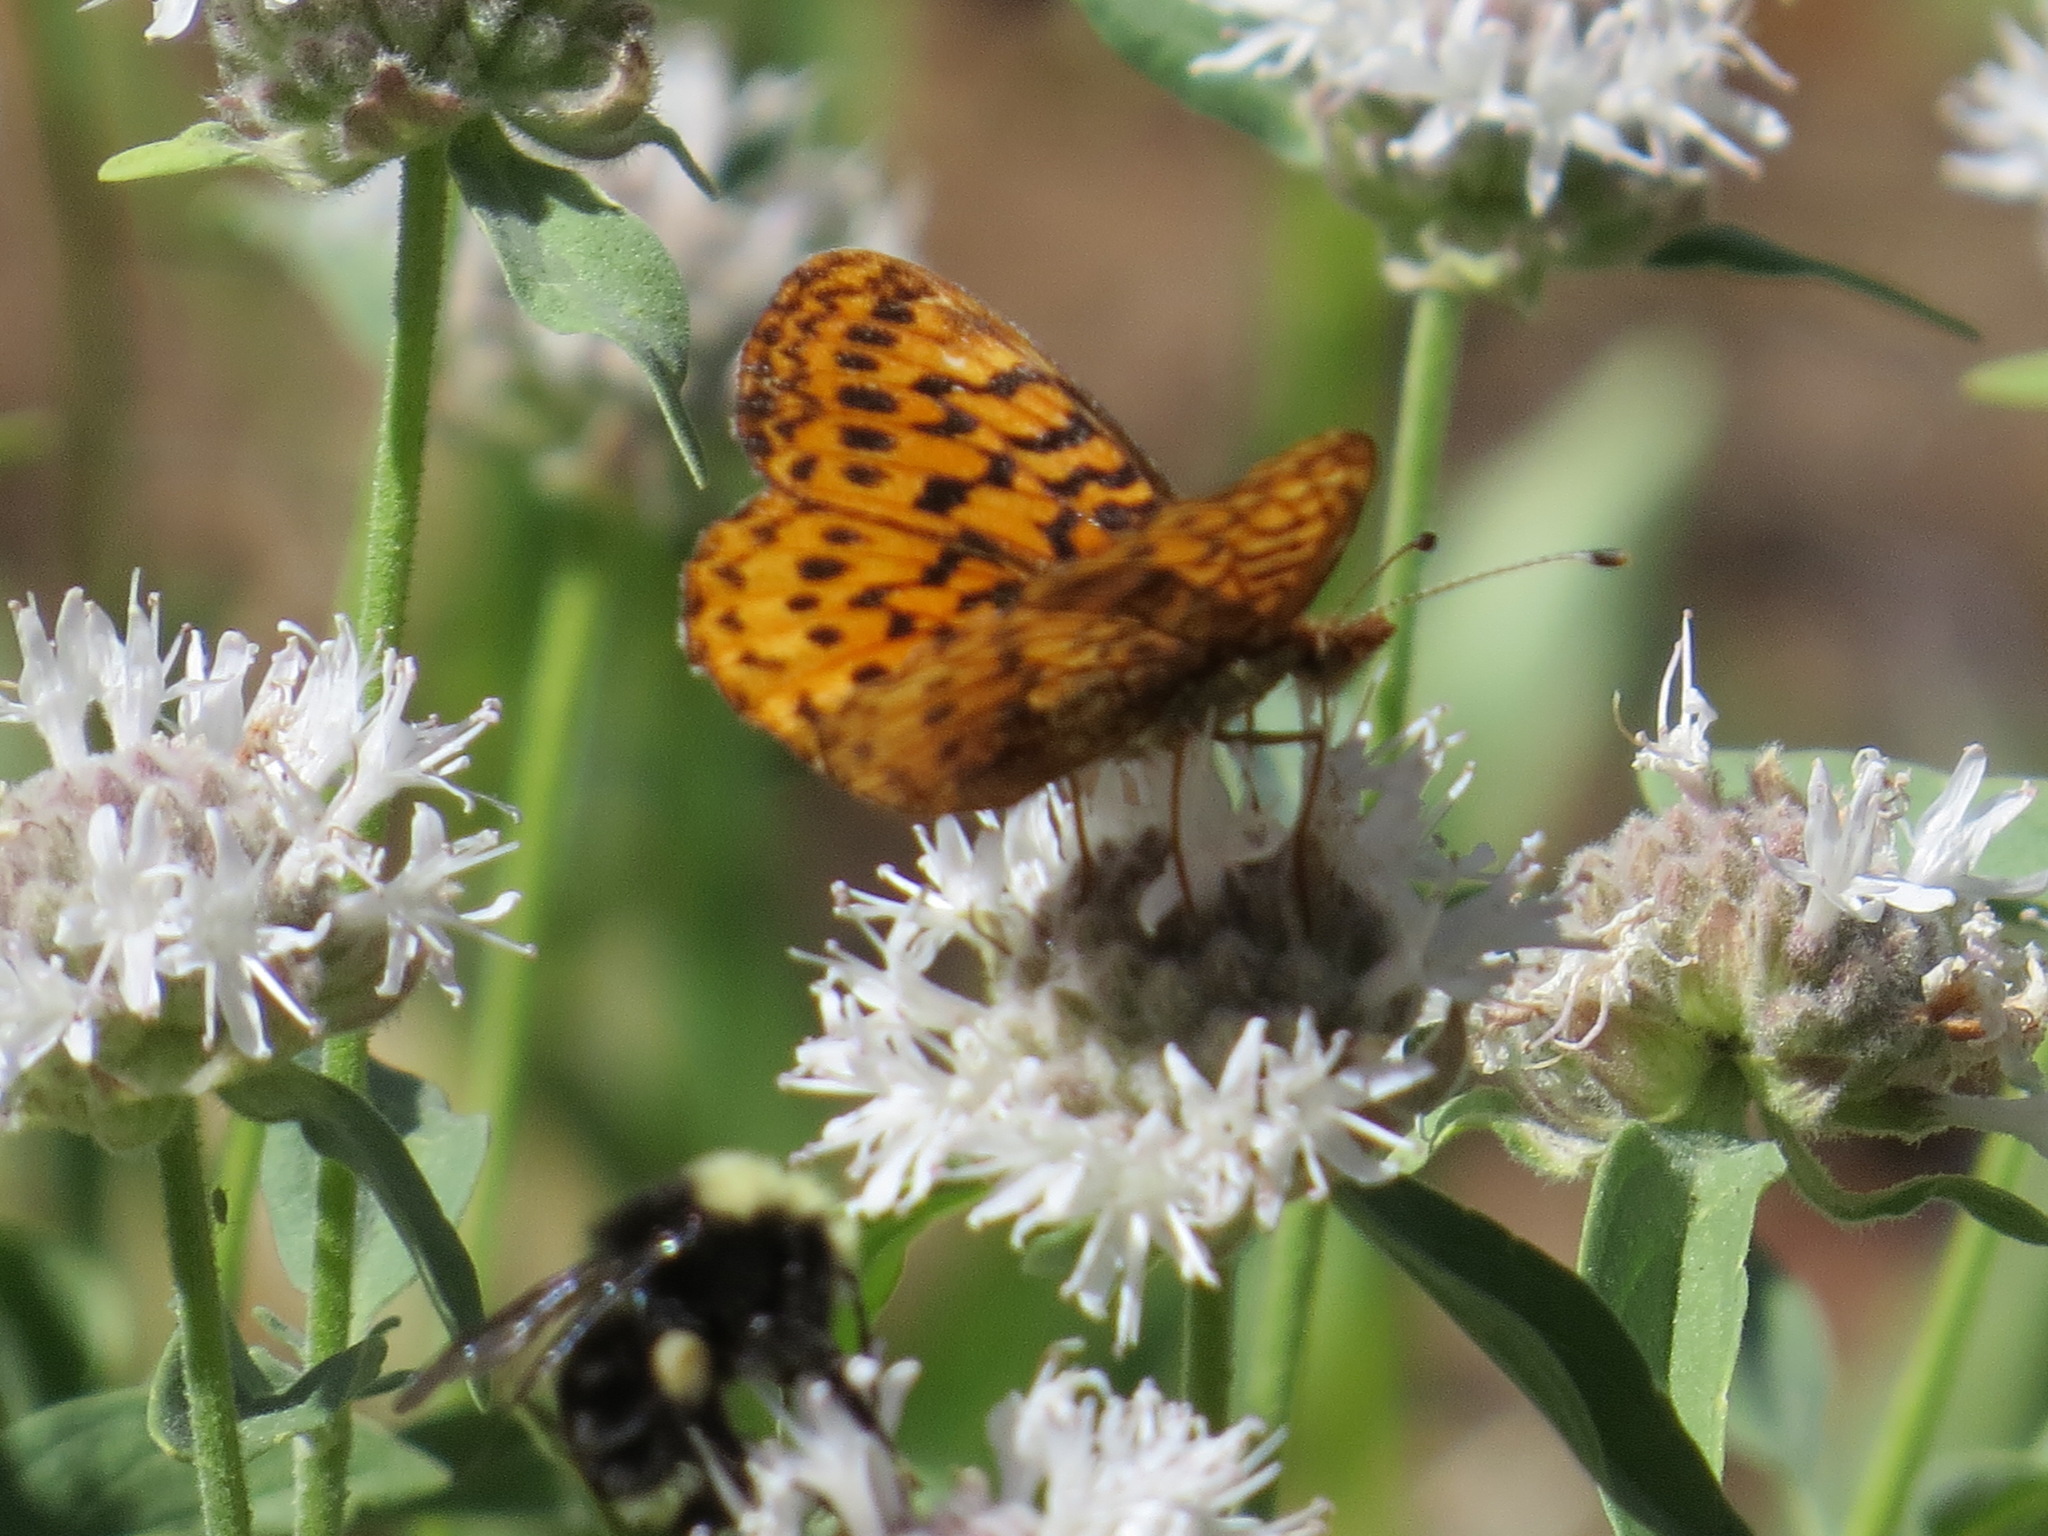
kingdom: Animalia
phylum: Arthropoda
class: Insecta
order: Lepidoptera
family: Nymphalidae
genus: Boloria
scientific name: Boloria epithore
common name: Pacific fritillary
